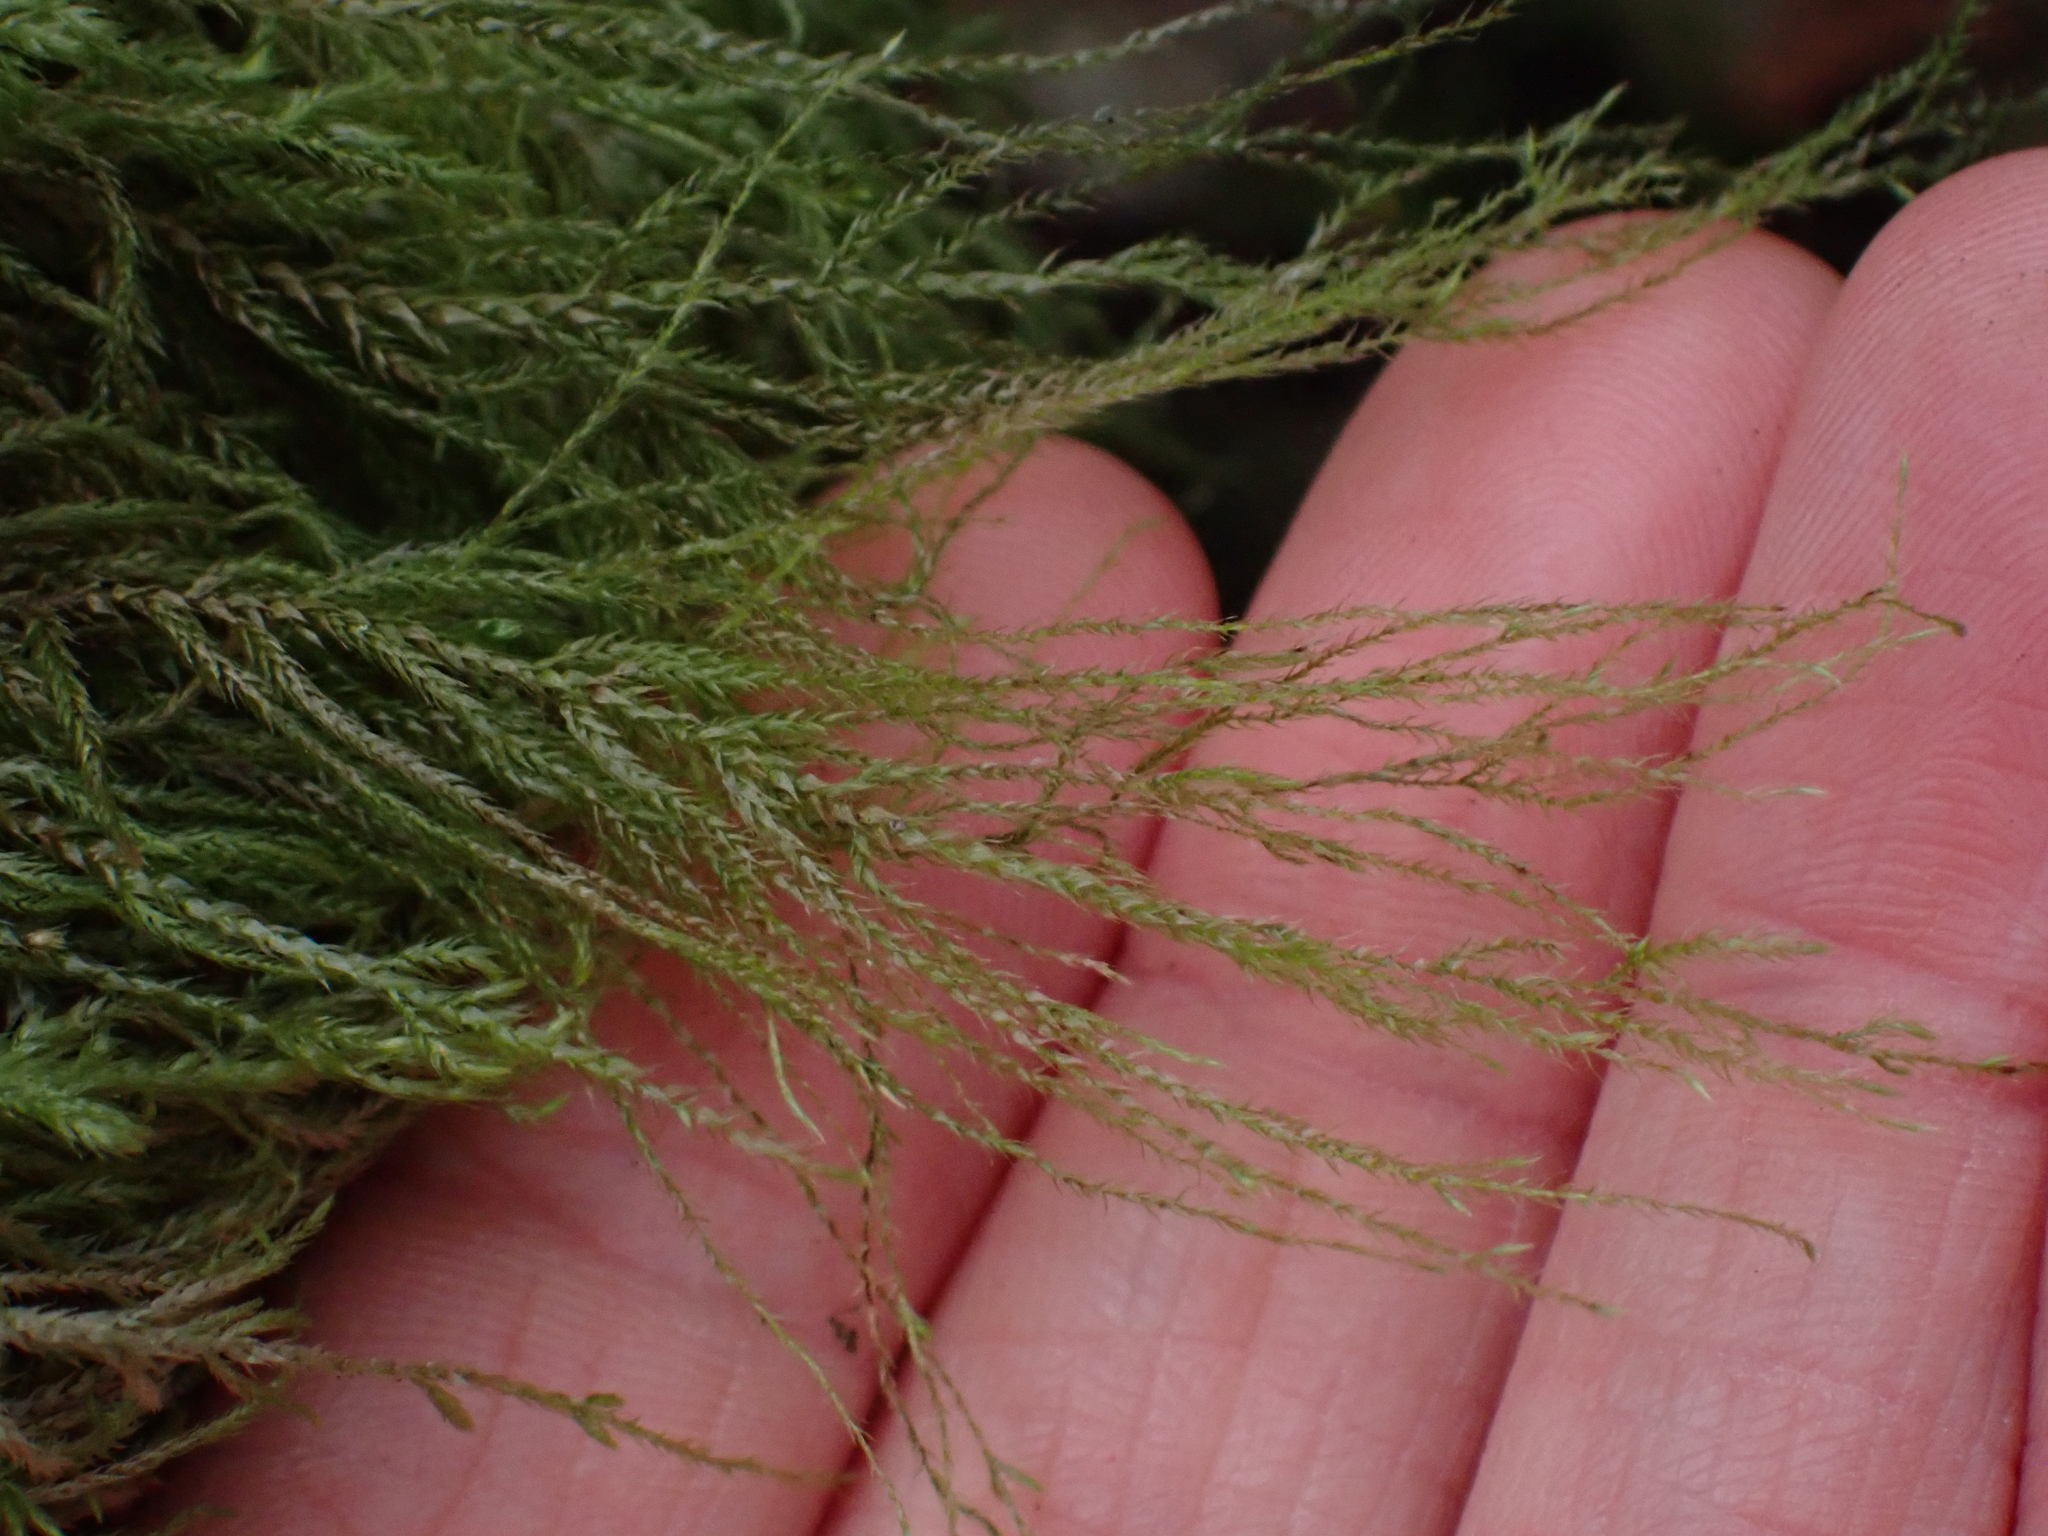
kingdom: Plantae
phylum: Bryophyta
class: Bryopsida
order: Hypnales
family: Lembophyllaceae
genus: Pseudisothecium
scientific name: Pseudisothecium stoloniferum
